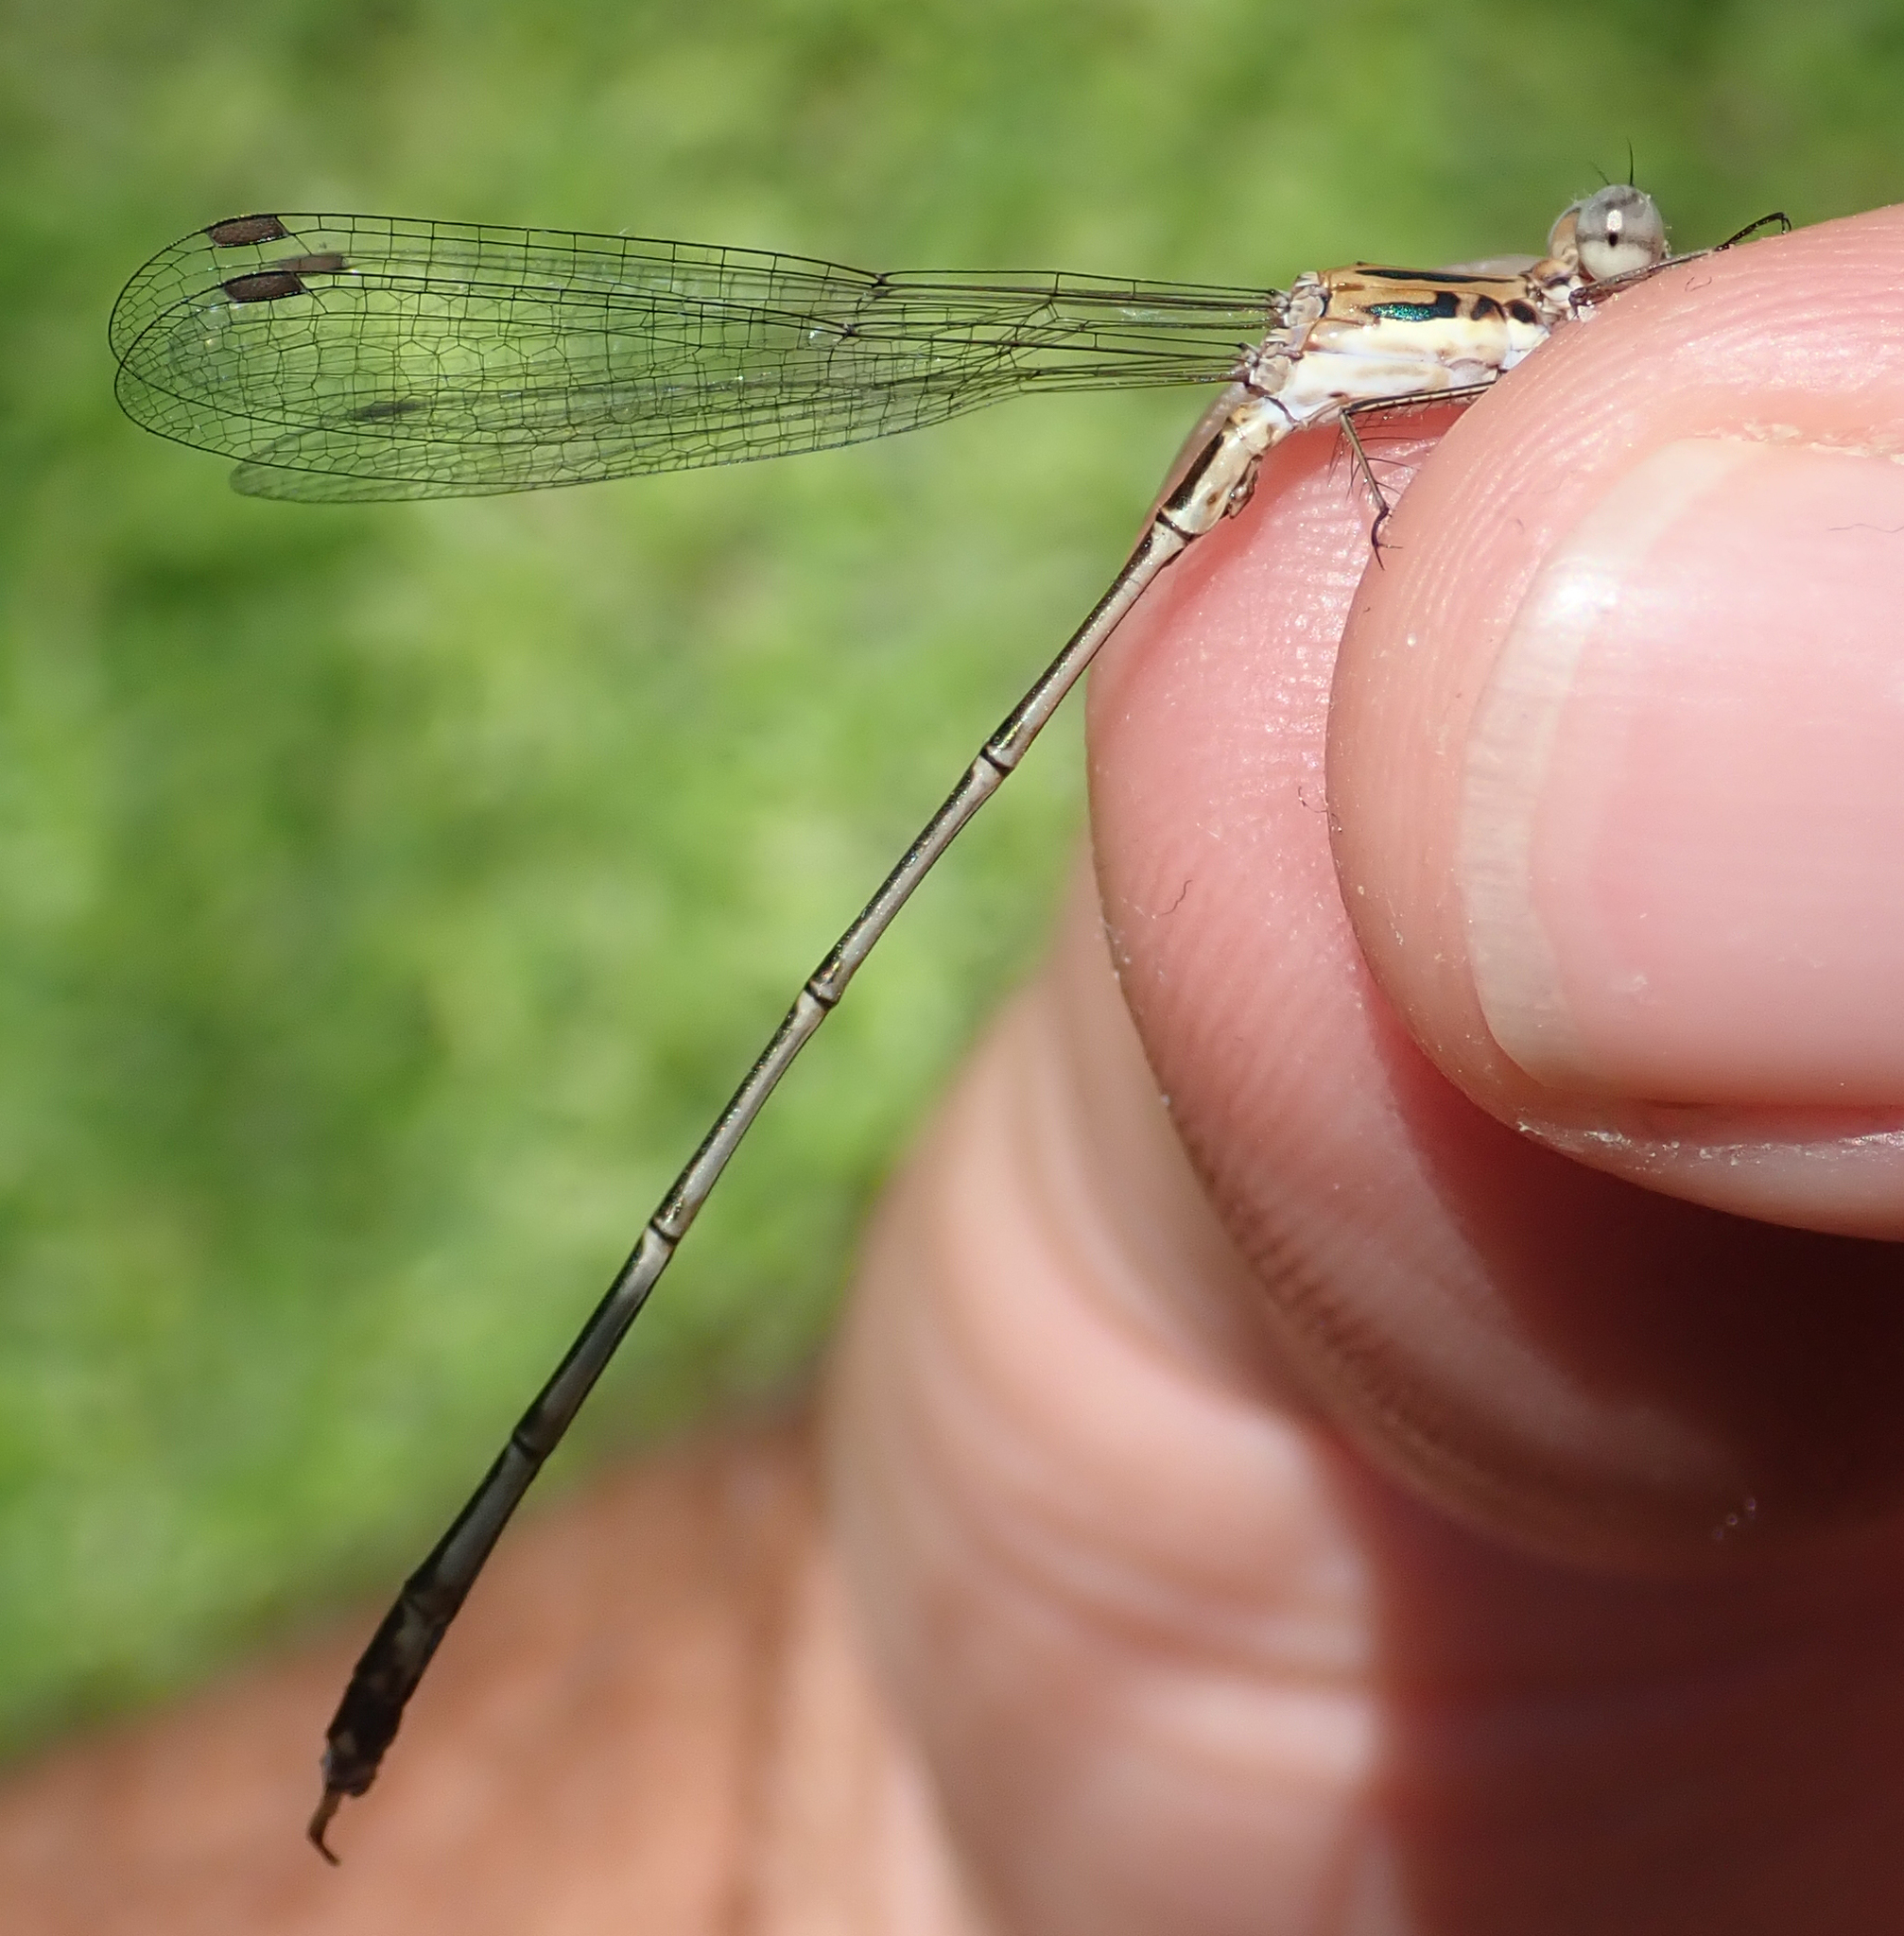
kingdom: Animalia
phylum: Arthropoda
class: Insecta
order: Odonata
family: Lestidae
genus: Lestes
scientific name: Lestes pinheyi
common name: Pinhey's spreadwing
